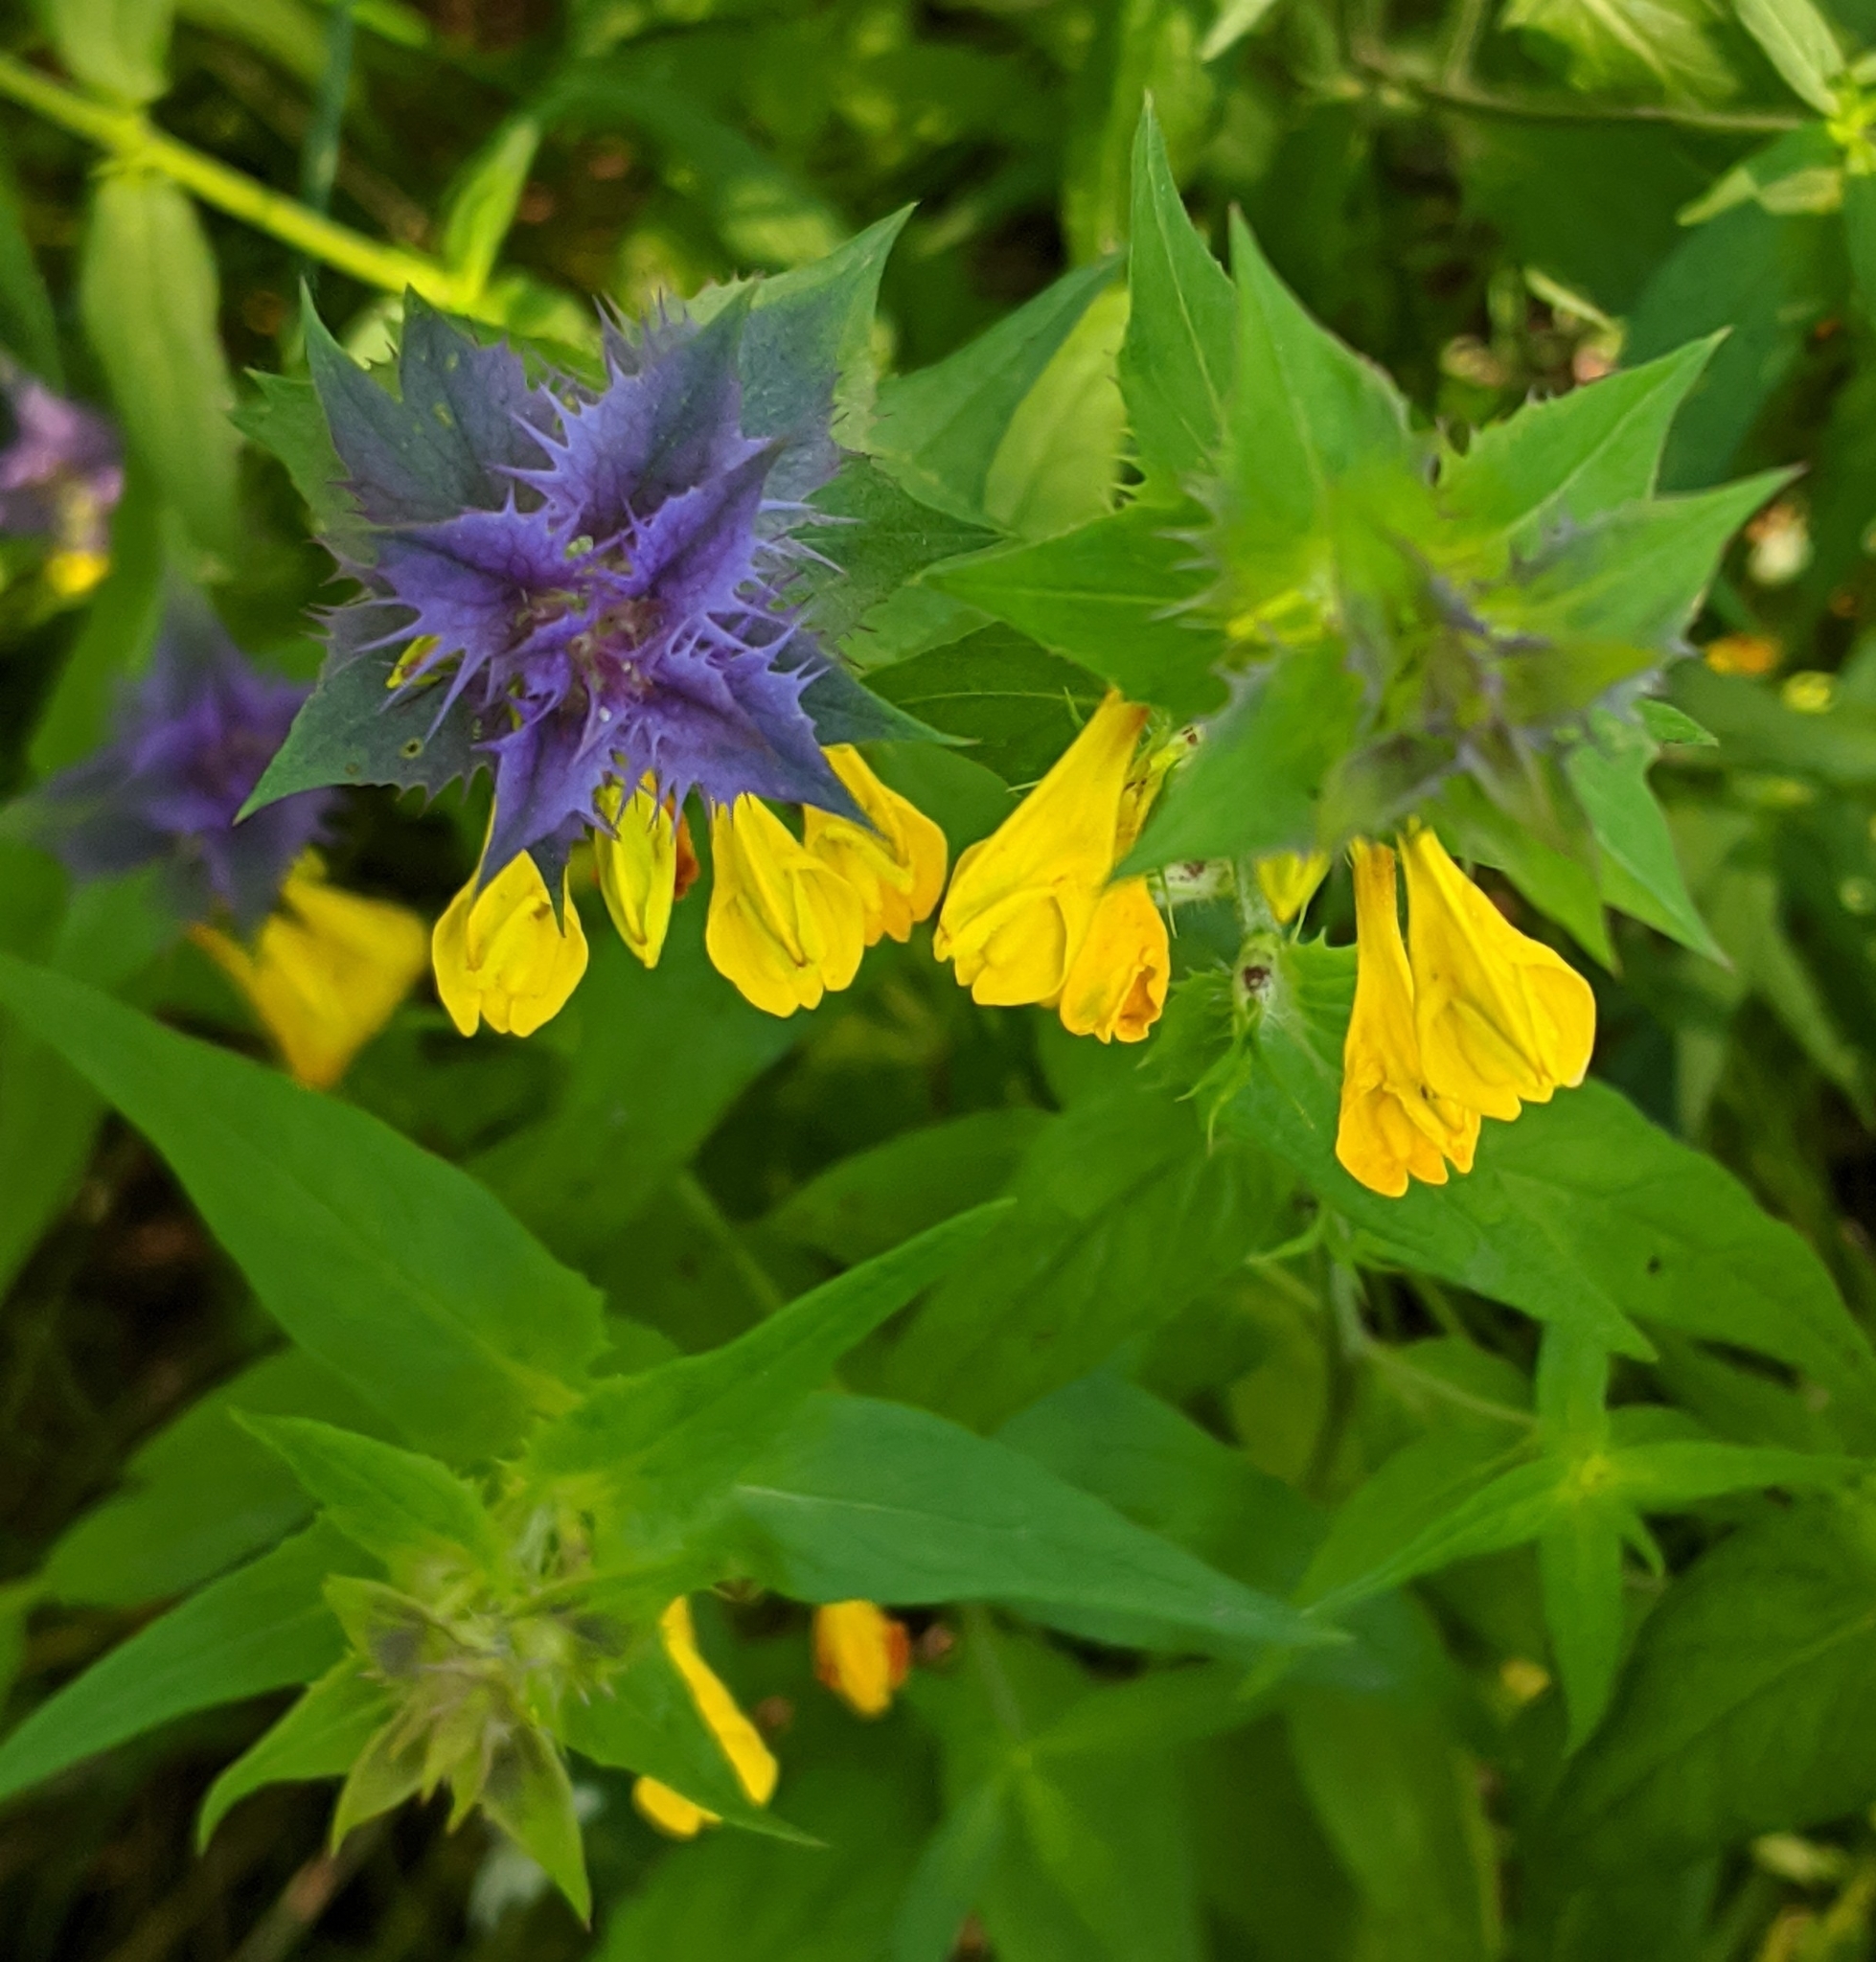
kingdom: Plantae
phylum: Tracheophyta
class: Magnoliopsida
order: Lamiales
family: Orobanchaceae
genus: Melampyrum
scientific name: Melampyrum nemorosum
